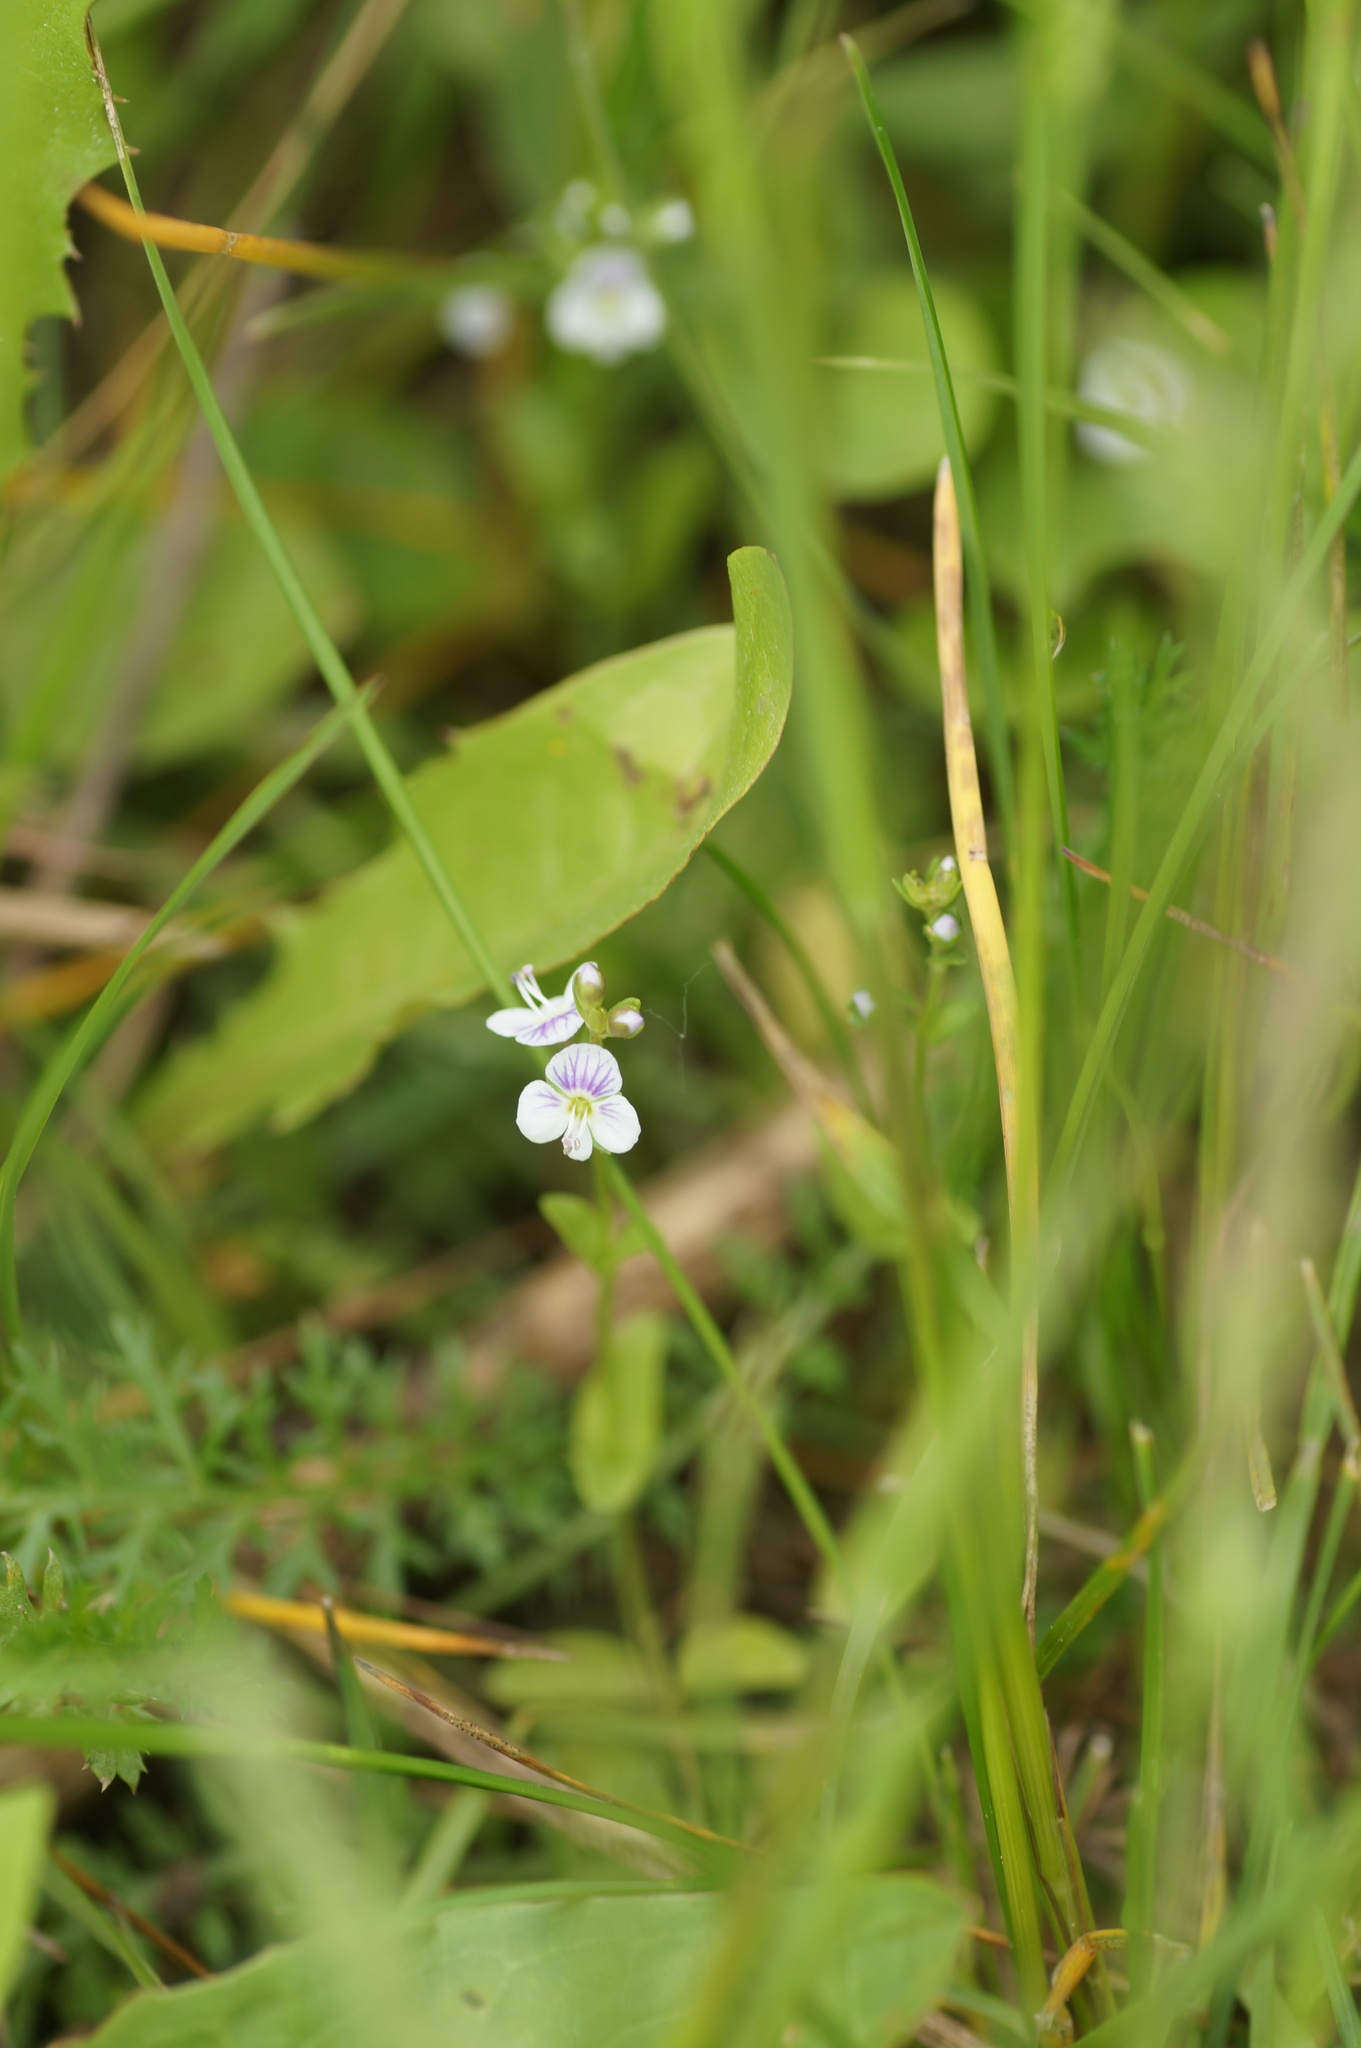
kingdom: Plantae
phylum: Tracheophyta
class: Magnoliopsida
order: Lamiales
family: Plantaginaceae
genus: Veronica
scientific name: Veronica serpyllifolia
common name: Thyme-leaved speedwell
